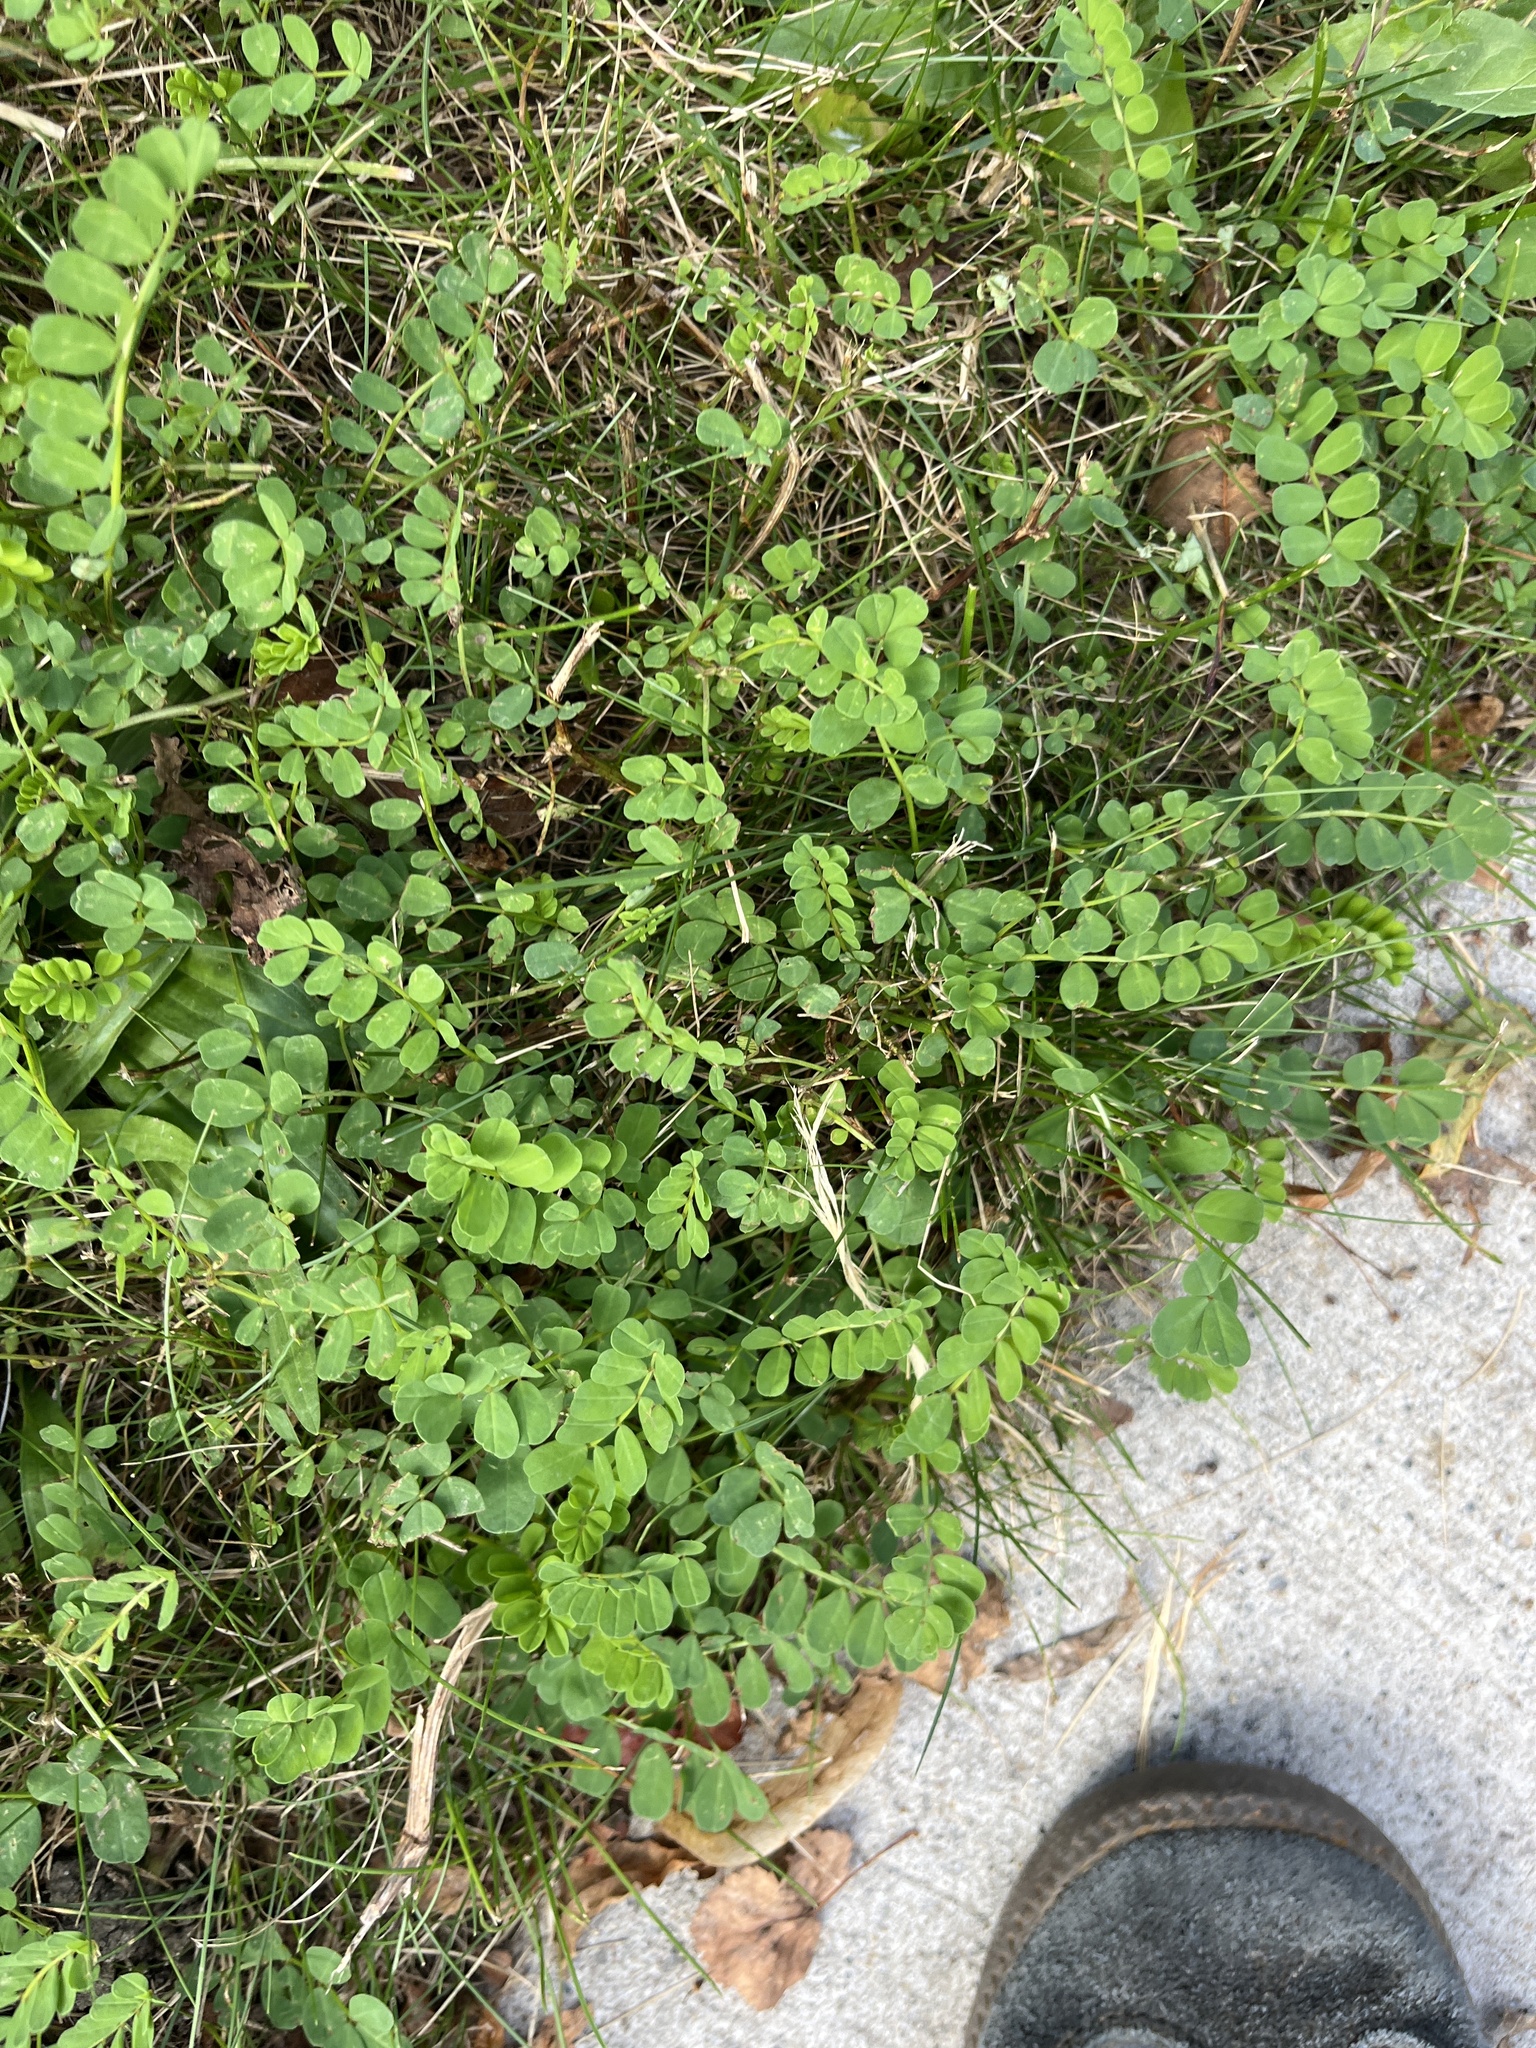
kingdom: Plantae
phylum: Tracheophyta
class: Magnoliopsida
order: Fabales
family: Fabaceae
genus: Coronilla
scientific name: Coronilla varia
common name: Crownvetch
